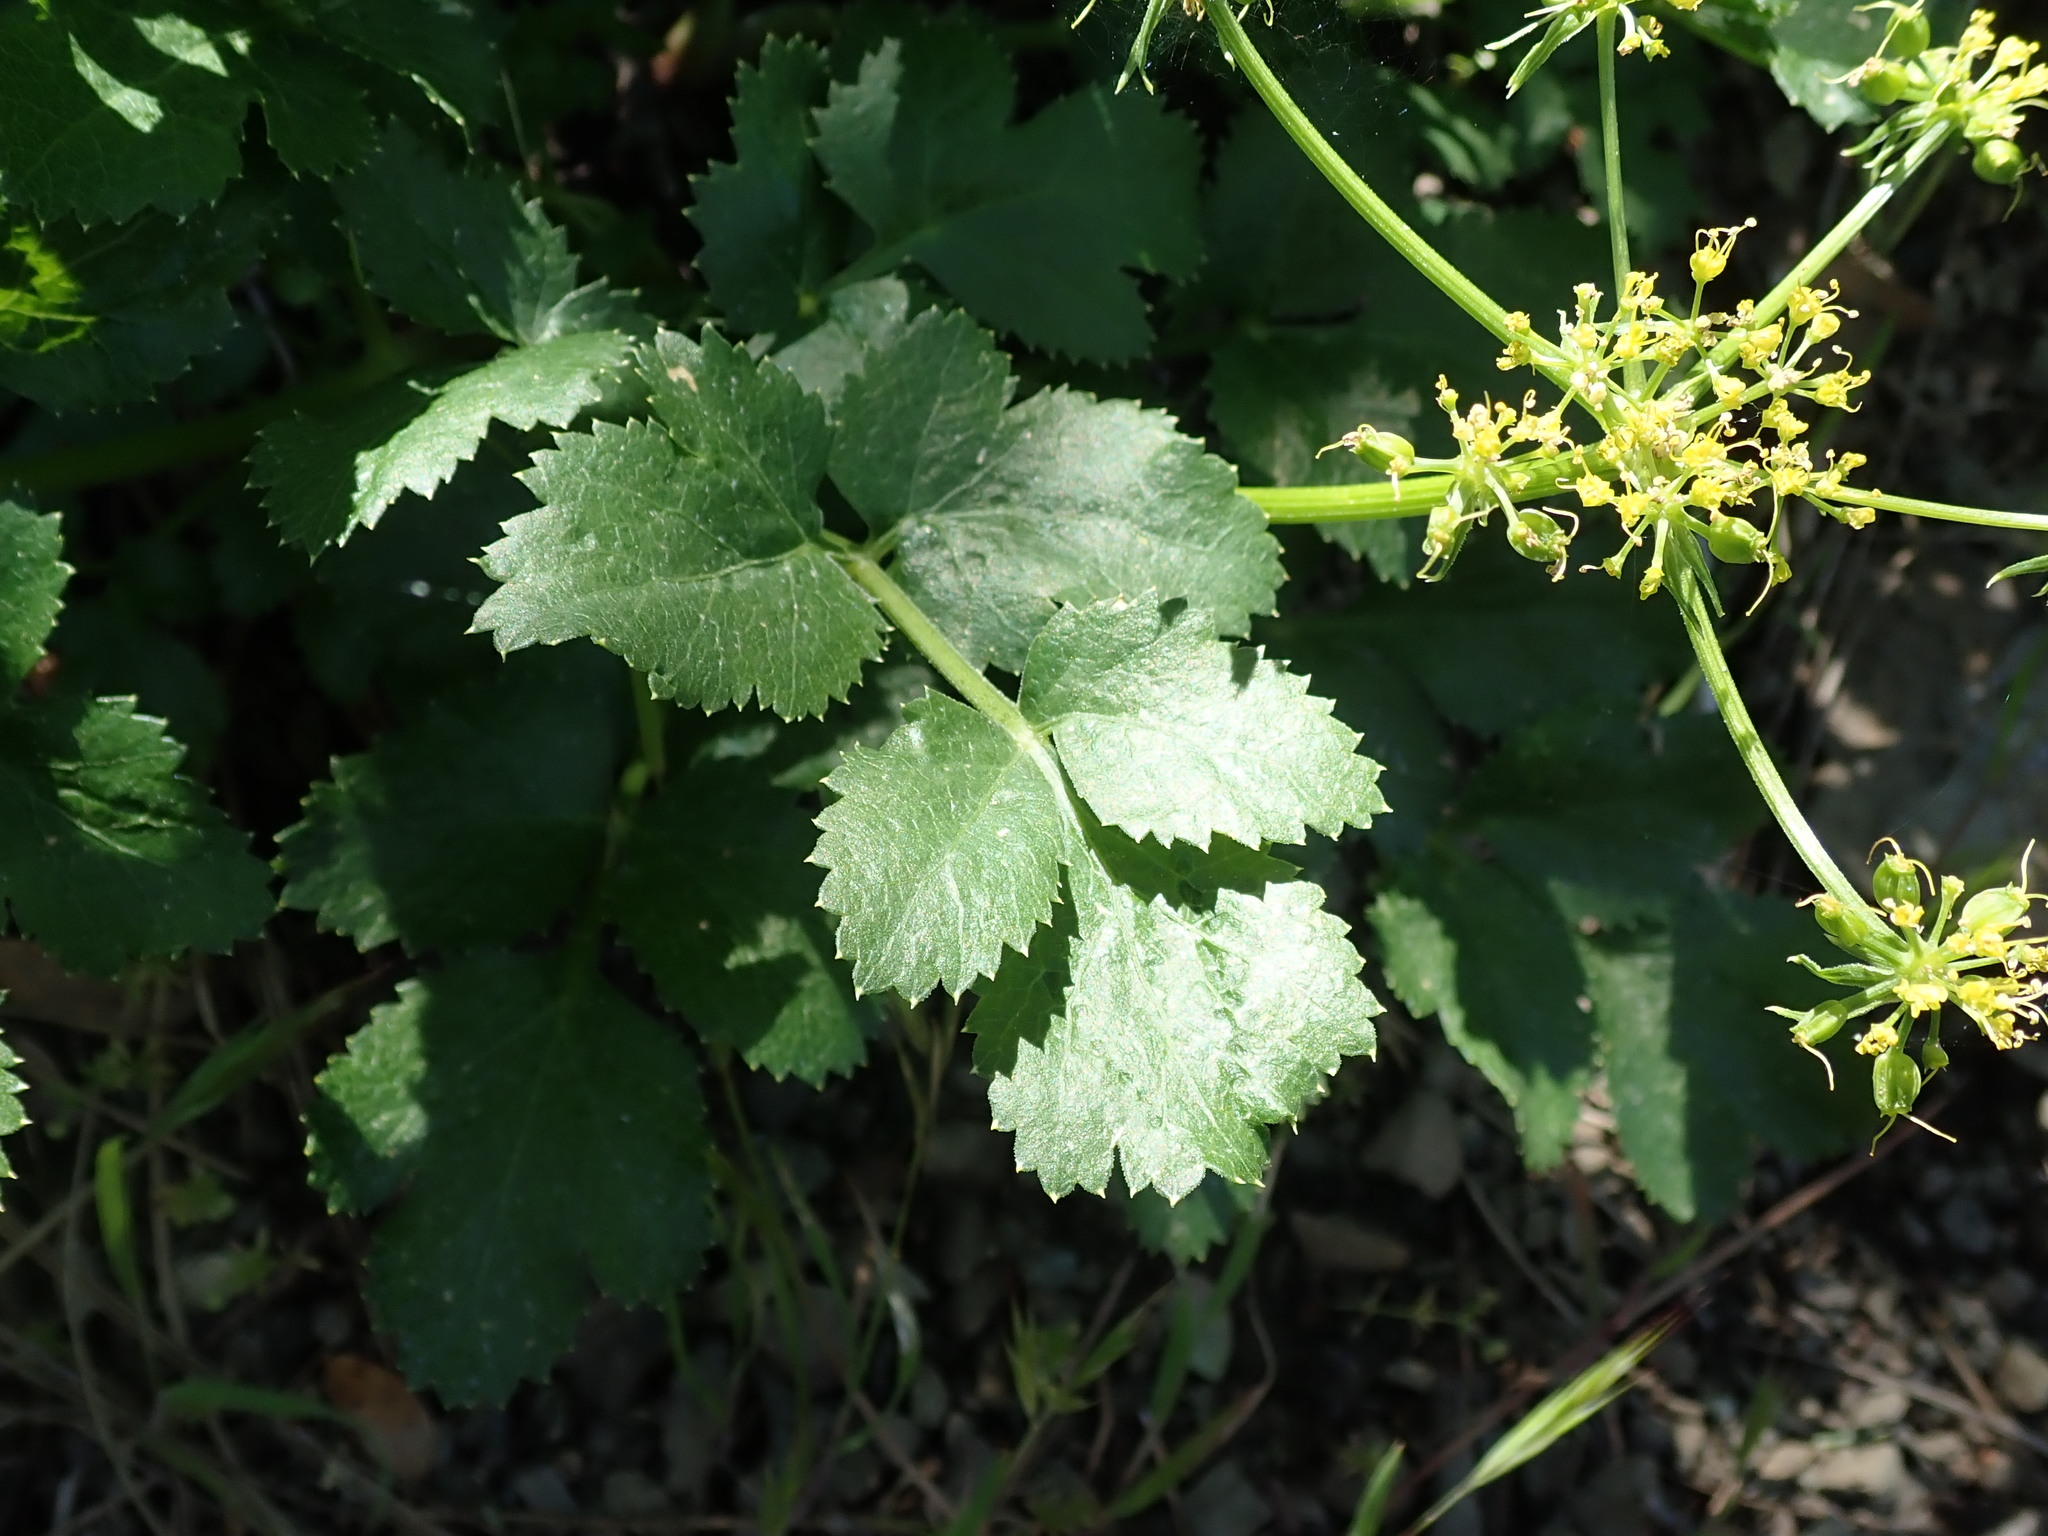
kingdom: Plantae
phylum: Tracheophyta
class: Magnoliopsida
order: Apiales
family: Apiaceae
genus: Tauschia
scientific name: Tauschia hartwegii
